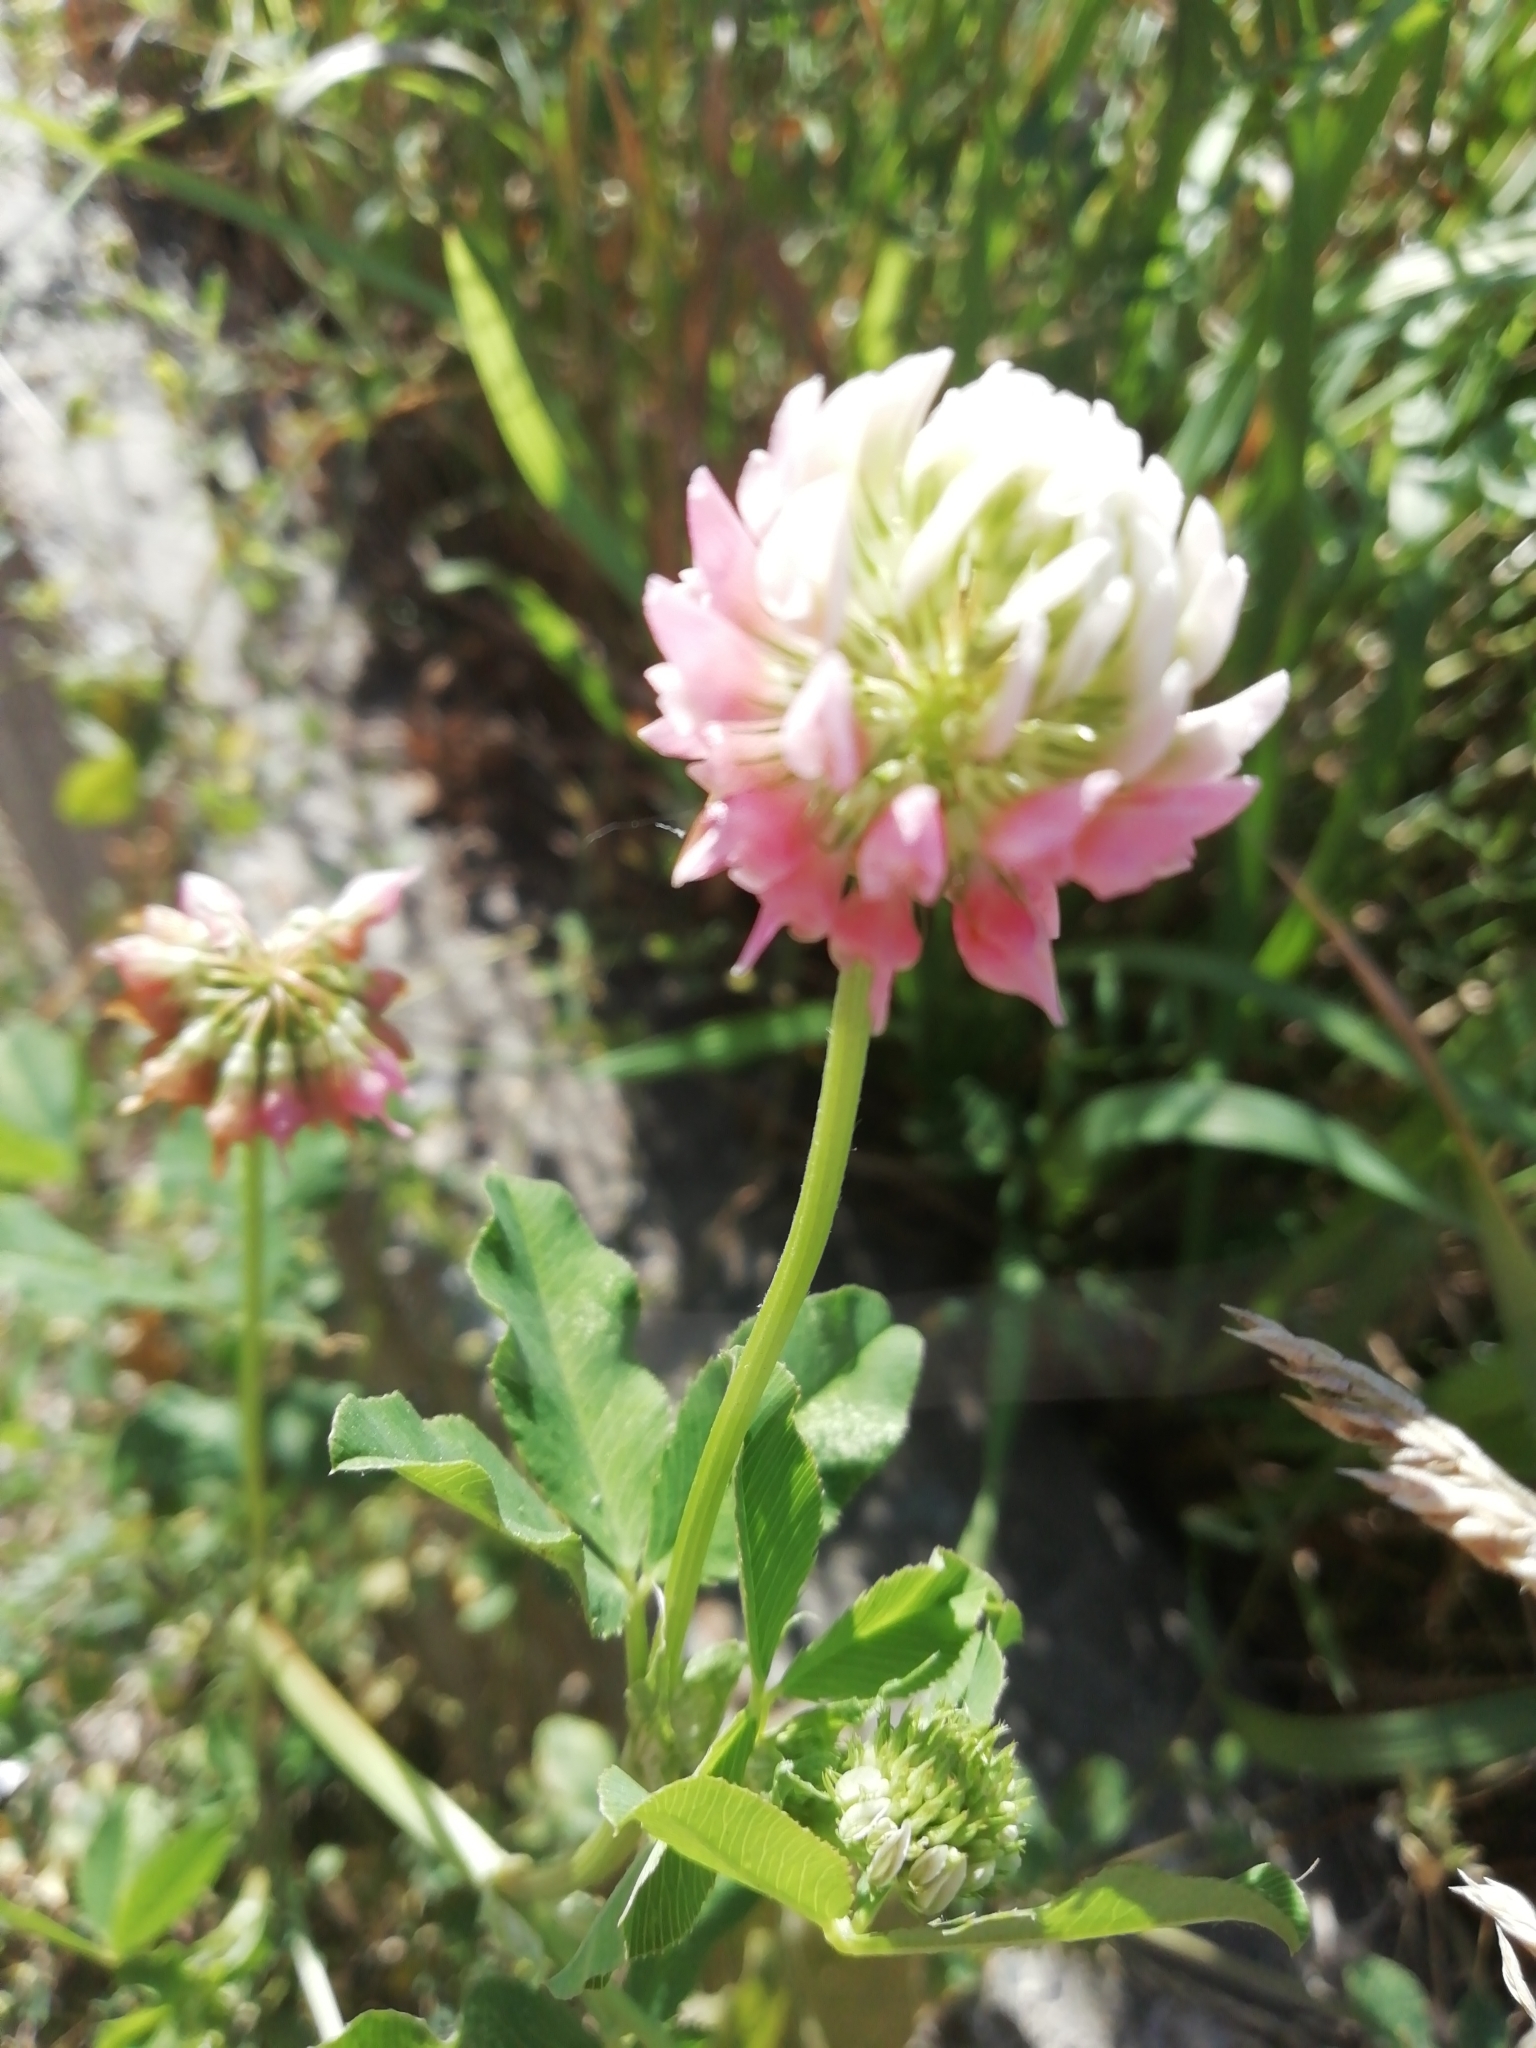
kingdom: Plantae
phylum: Tracheophyta
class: Magnoliopsida
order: Fabales
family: Fabaceae
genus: Trifolium
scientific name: Trifolium hybridum
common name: Alsike clover
